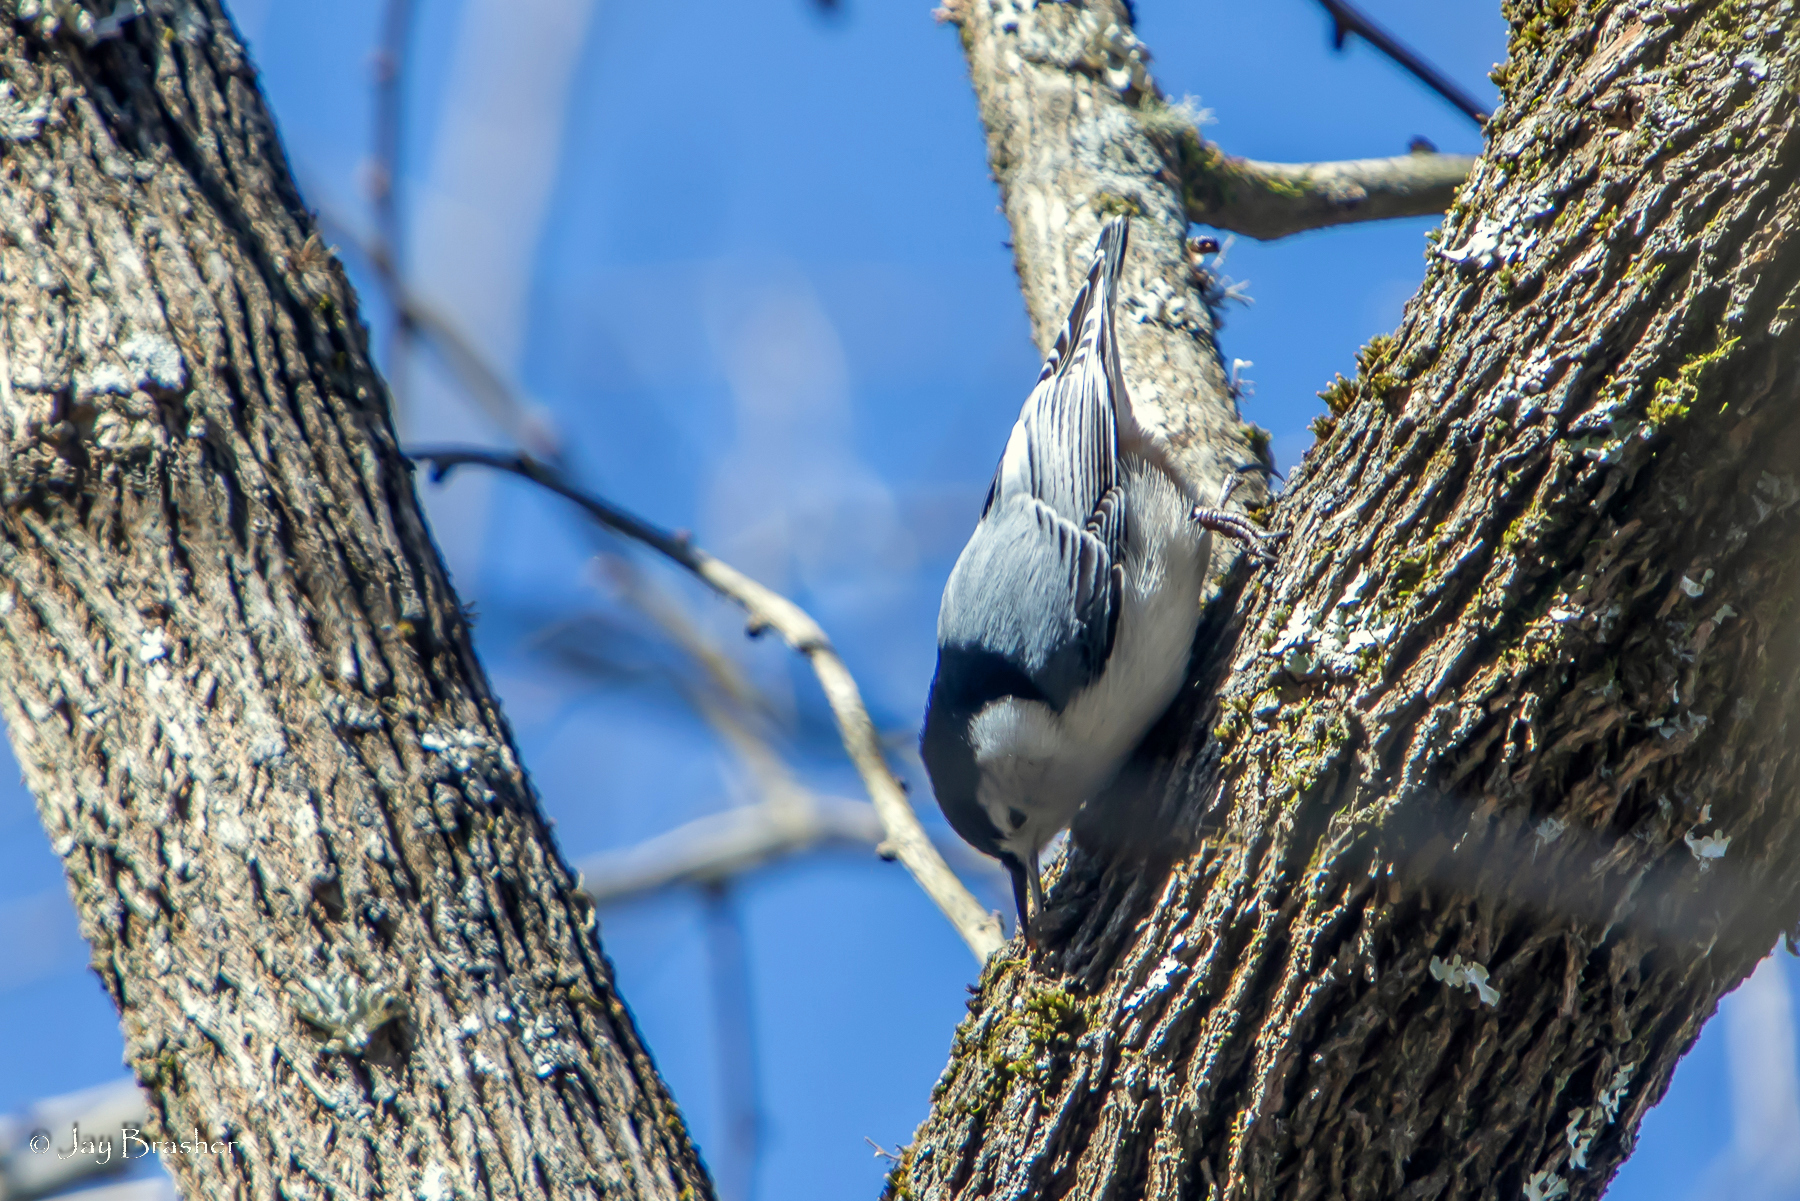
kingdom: Animalia
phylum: Chordata
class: Aves
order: Passeriformes
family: Sittidae
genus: Sitta
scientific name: Sitta carolinensis
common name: White-breasted nuthatch
